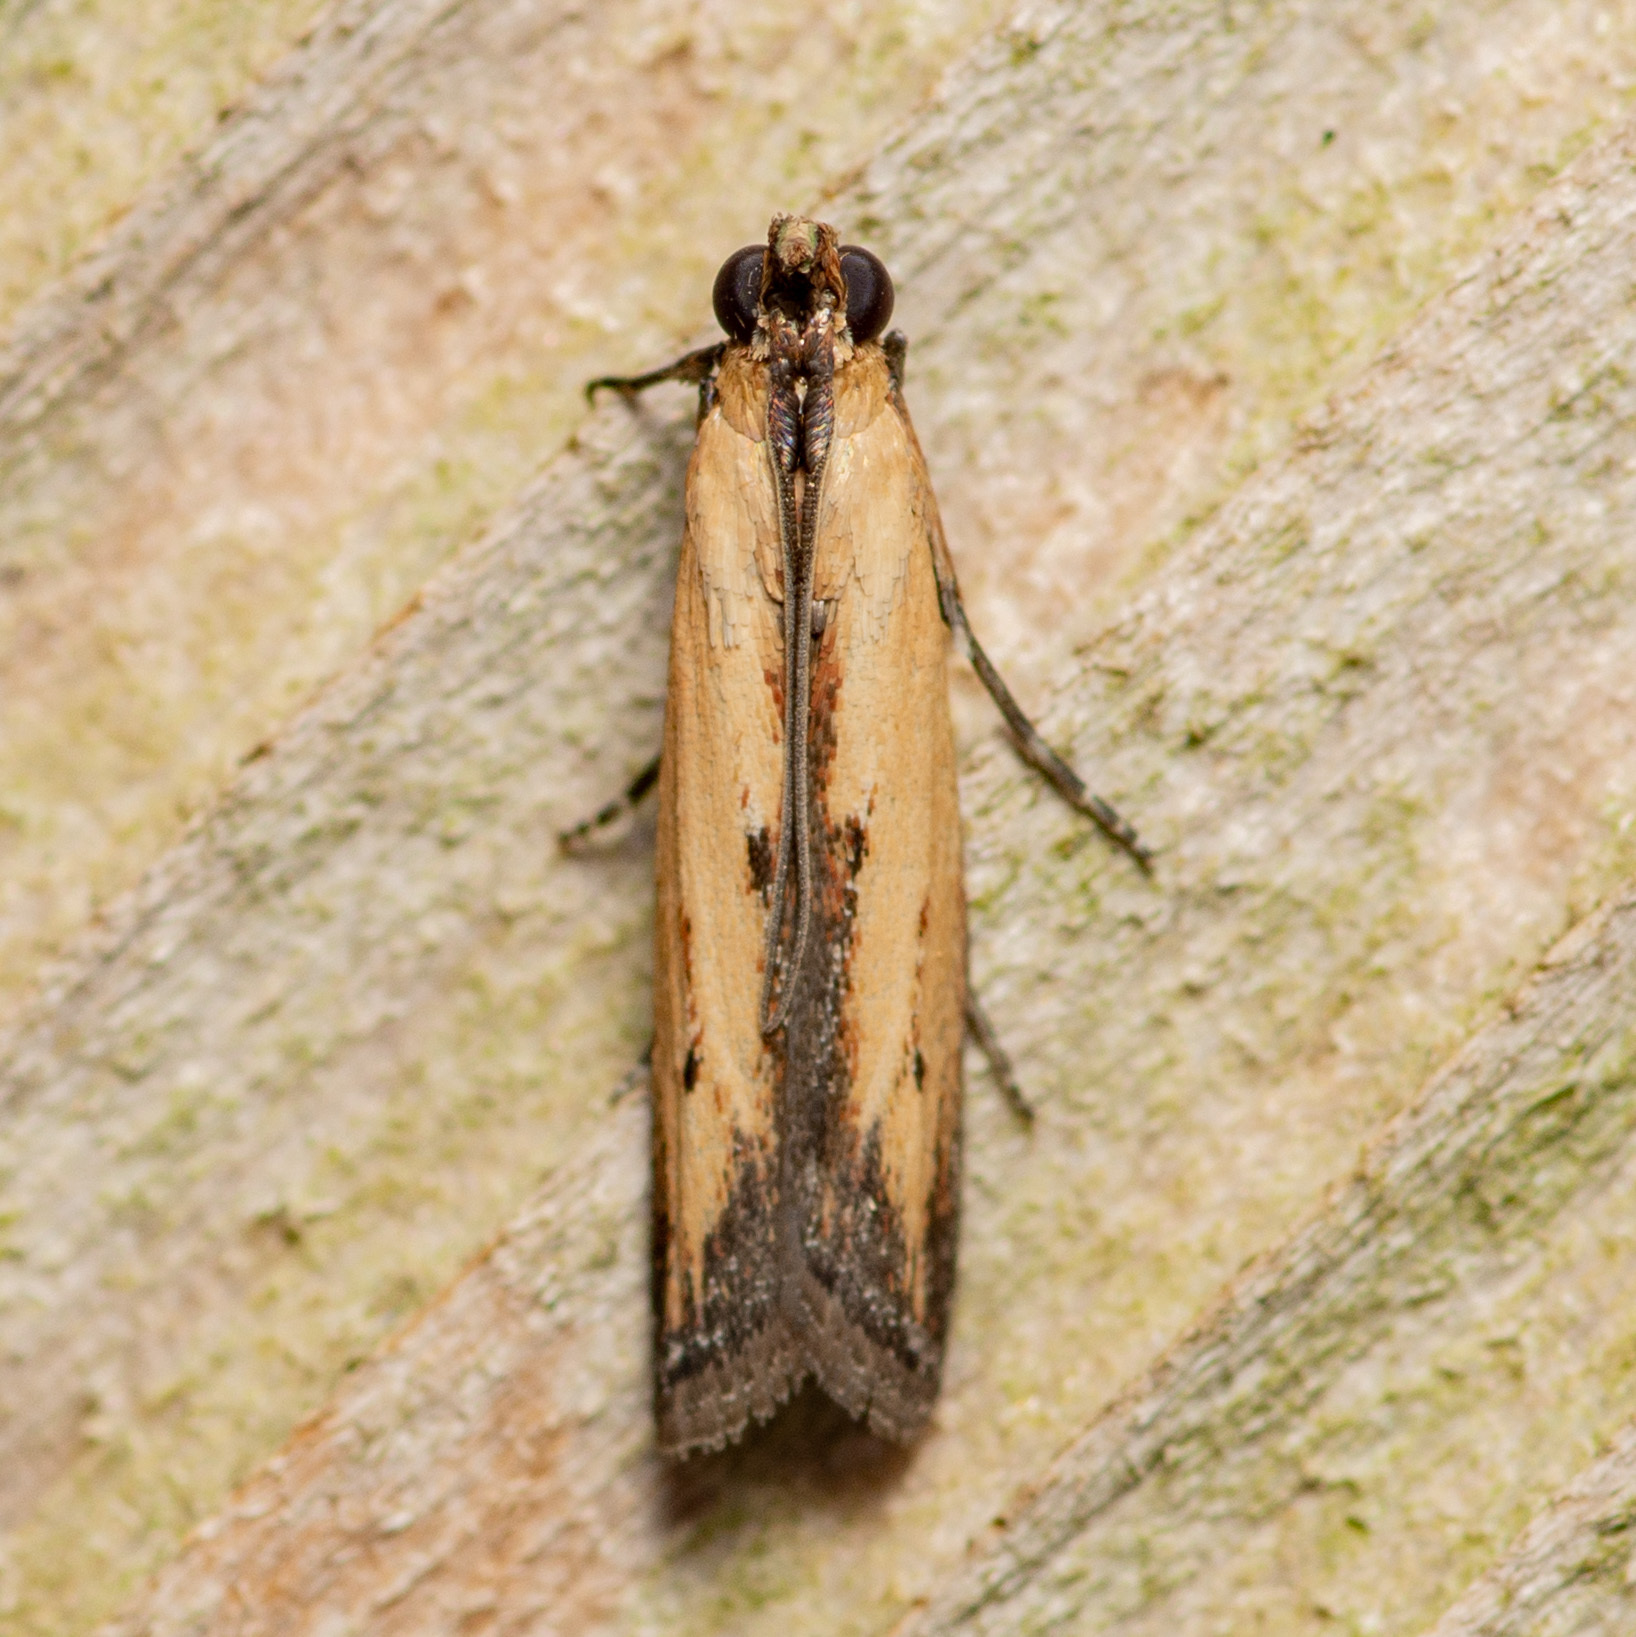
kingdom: Animalia
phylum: Arthropoda
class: Insecta
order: Lepidoptera
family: Pyralidae
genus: Elasmopalpus
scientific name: Elasmopalpus lignosella
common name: Lesser cornstalk borer
